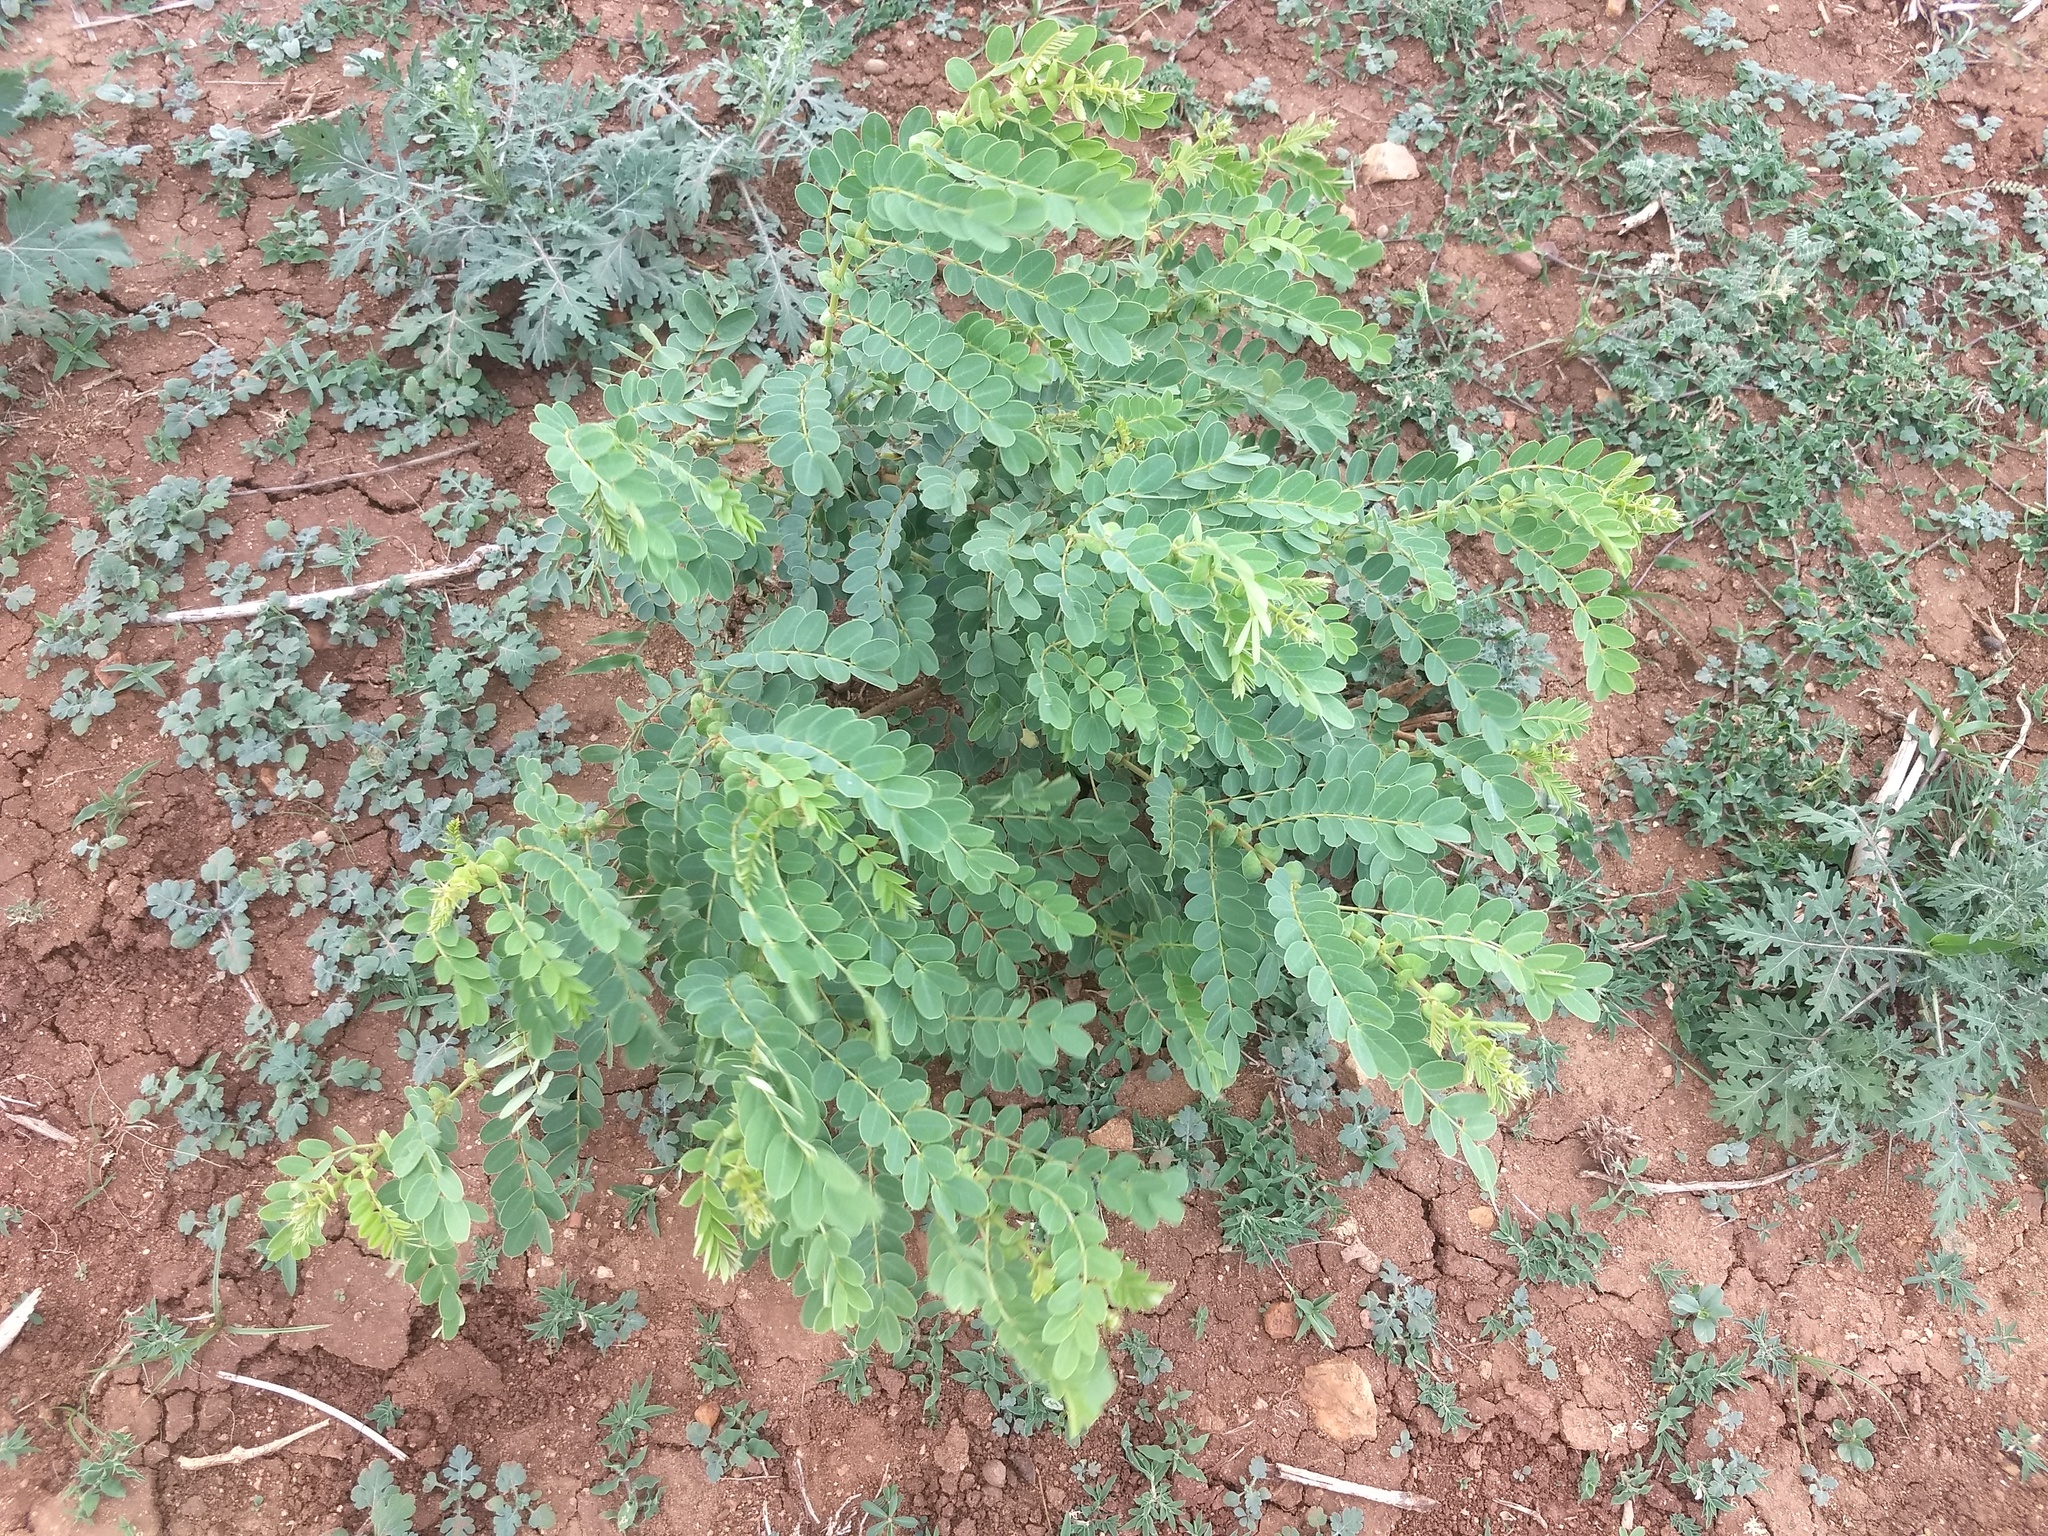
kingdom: Plantae
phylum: Tracheophyta
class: Magnoliopsida
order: Fabales
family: Fabaceae
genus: Senna
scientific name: Senna auriculata
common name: Tanner's cassia
